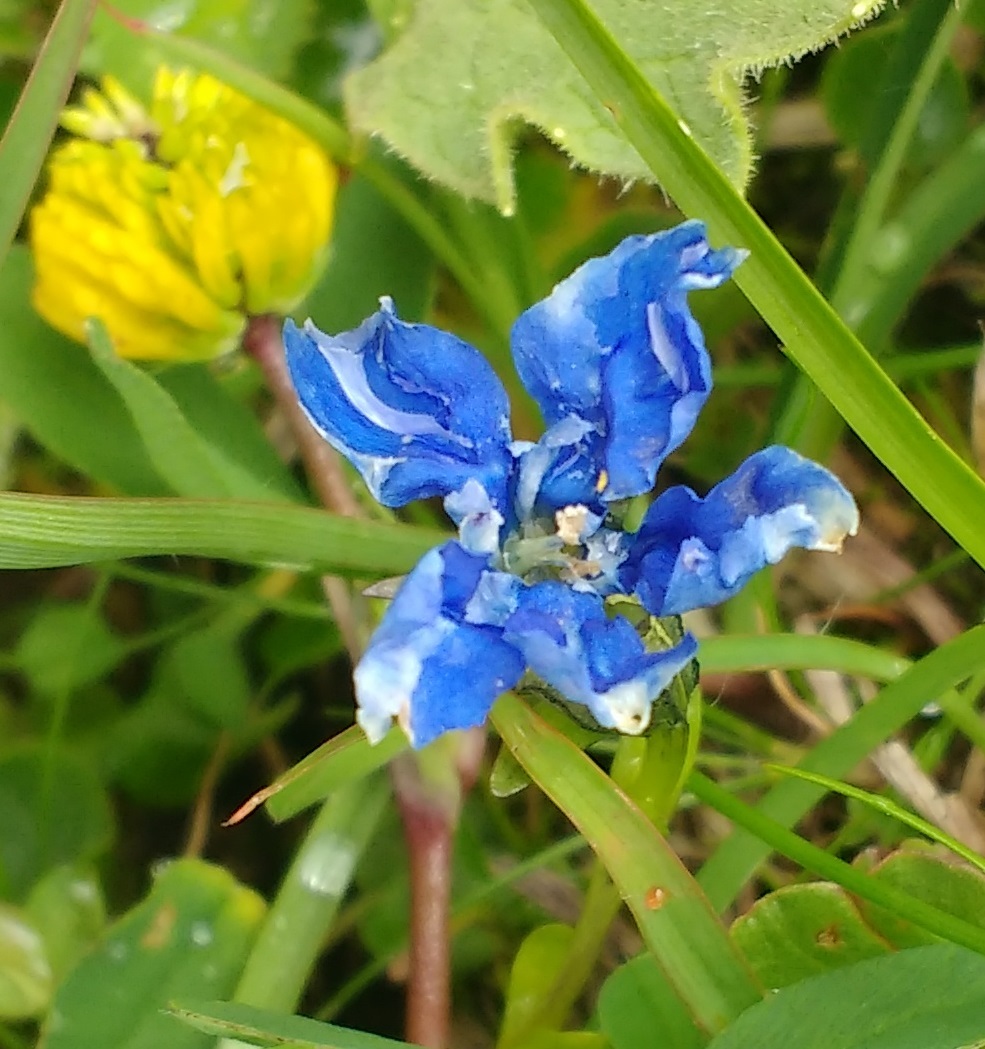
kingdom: Plantae
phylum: Tracheophyta
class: Magnoliopsida
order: Gentianales
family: Gentianaceae
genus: Gentiana
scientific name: Gentiana bavarica
